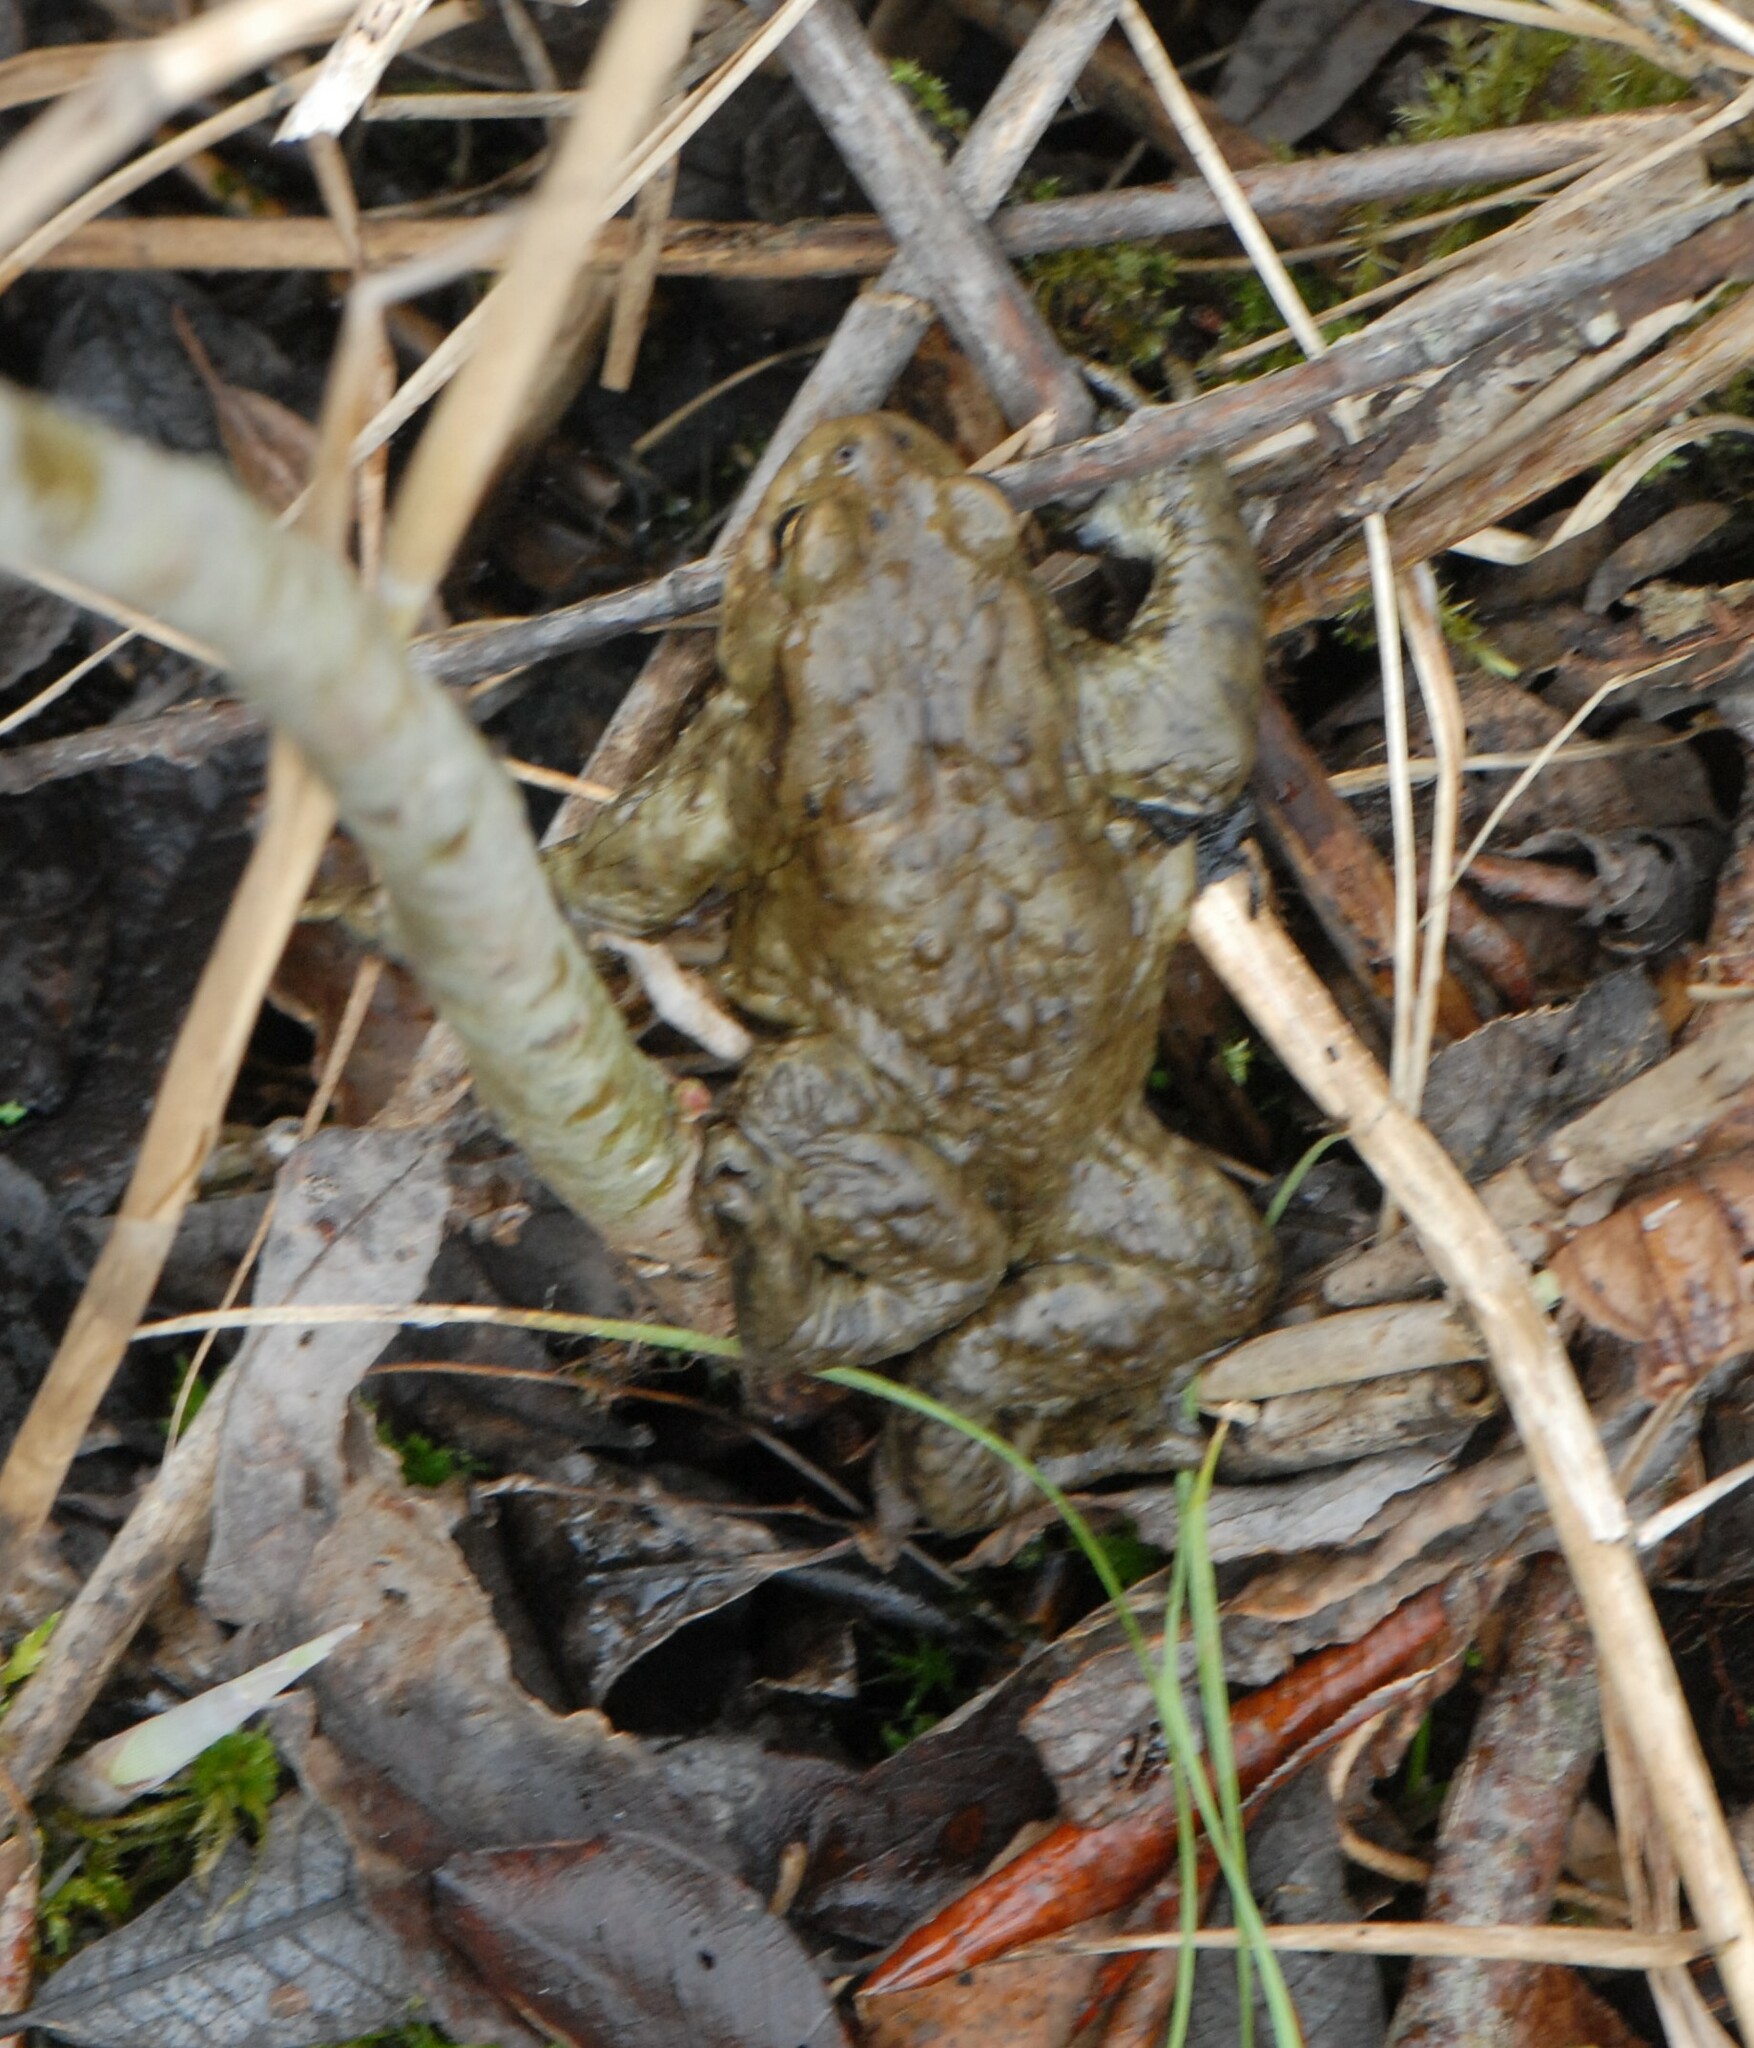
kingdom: Animalia
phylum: Chordata
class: Amphibia
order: Anura
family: Bufonidae
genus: Bufo
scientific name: Bufo bufo
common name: Common toad
